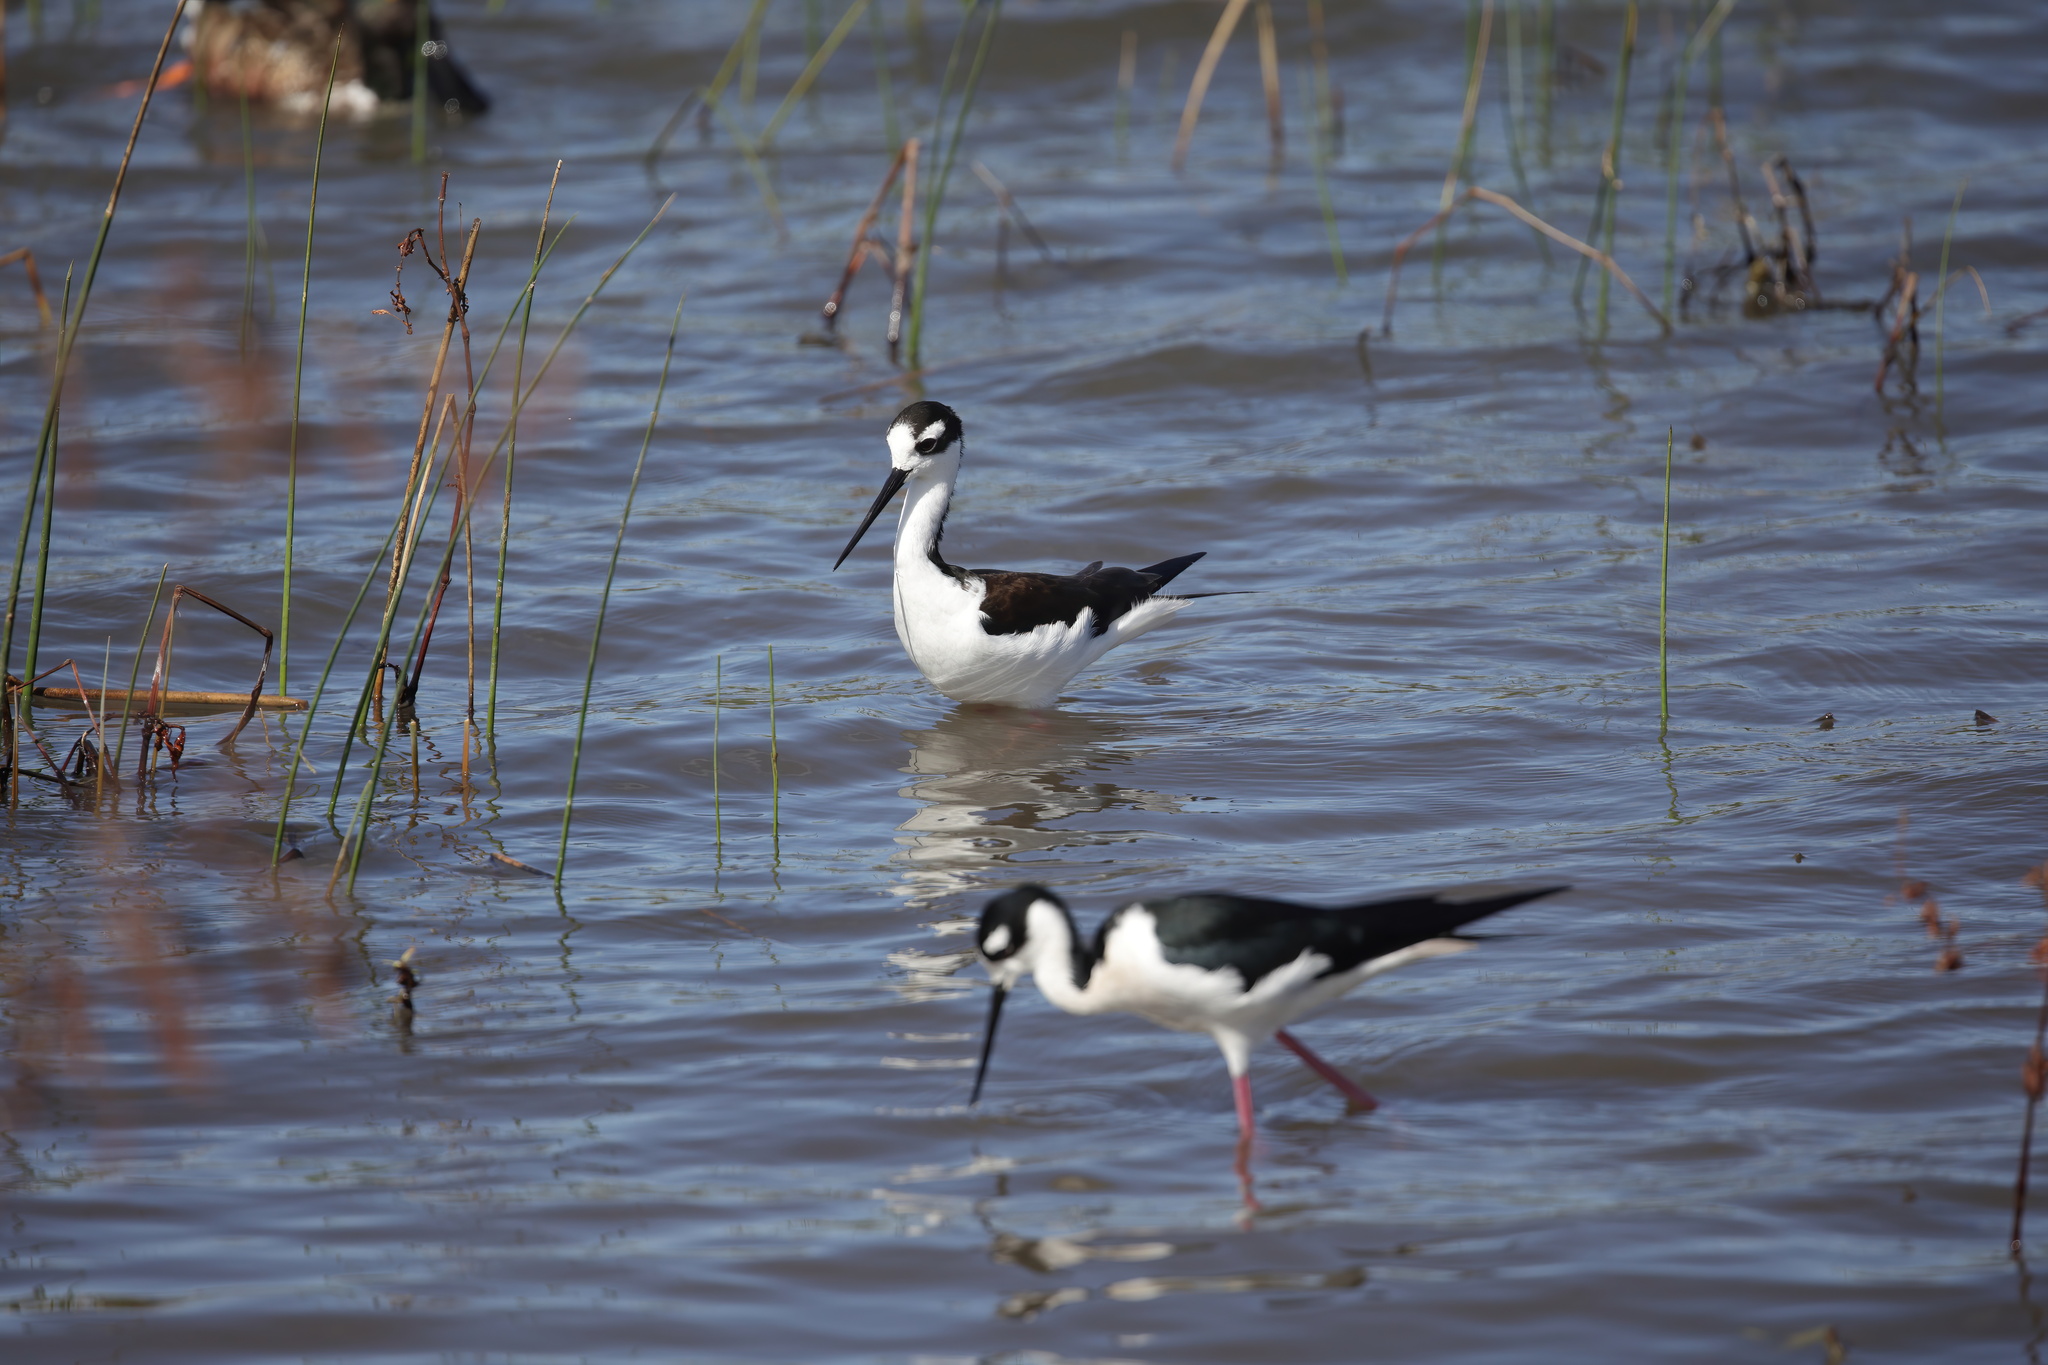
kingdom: Animalia
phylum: Chordata
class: Aves
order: Charadriiformes
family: Recurvirostridae
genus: Himantopus
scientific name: Himantopus mexicanus
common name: Black-necked stilt
